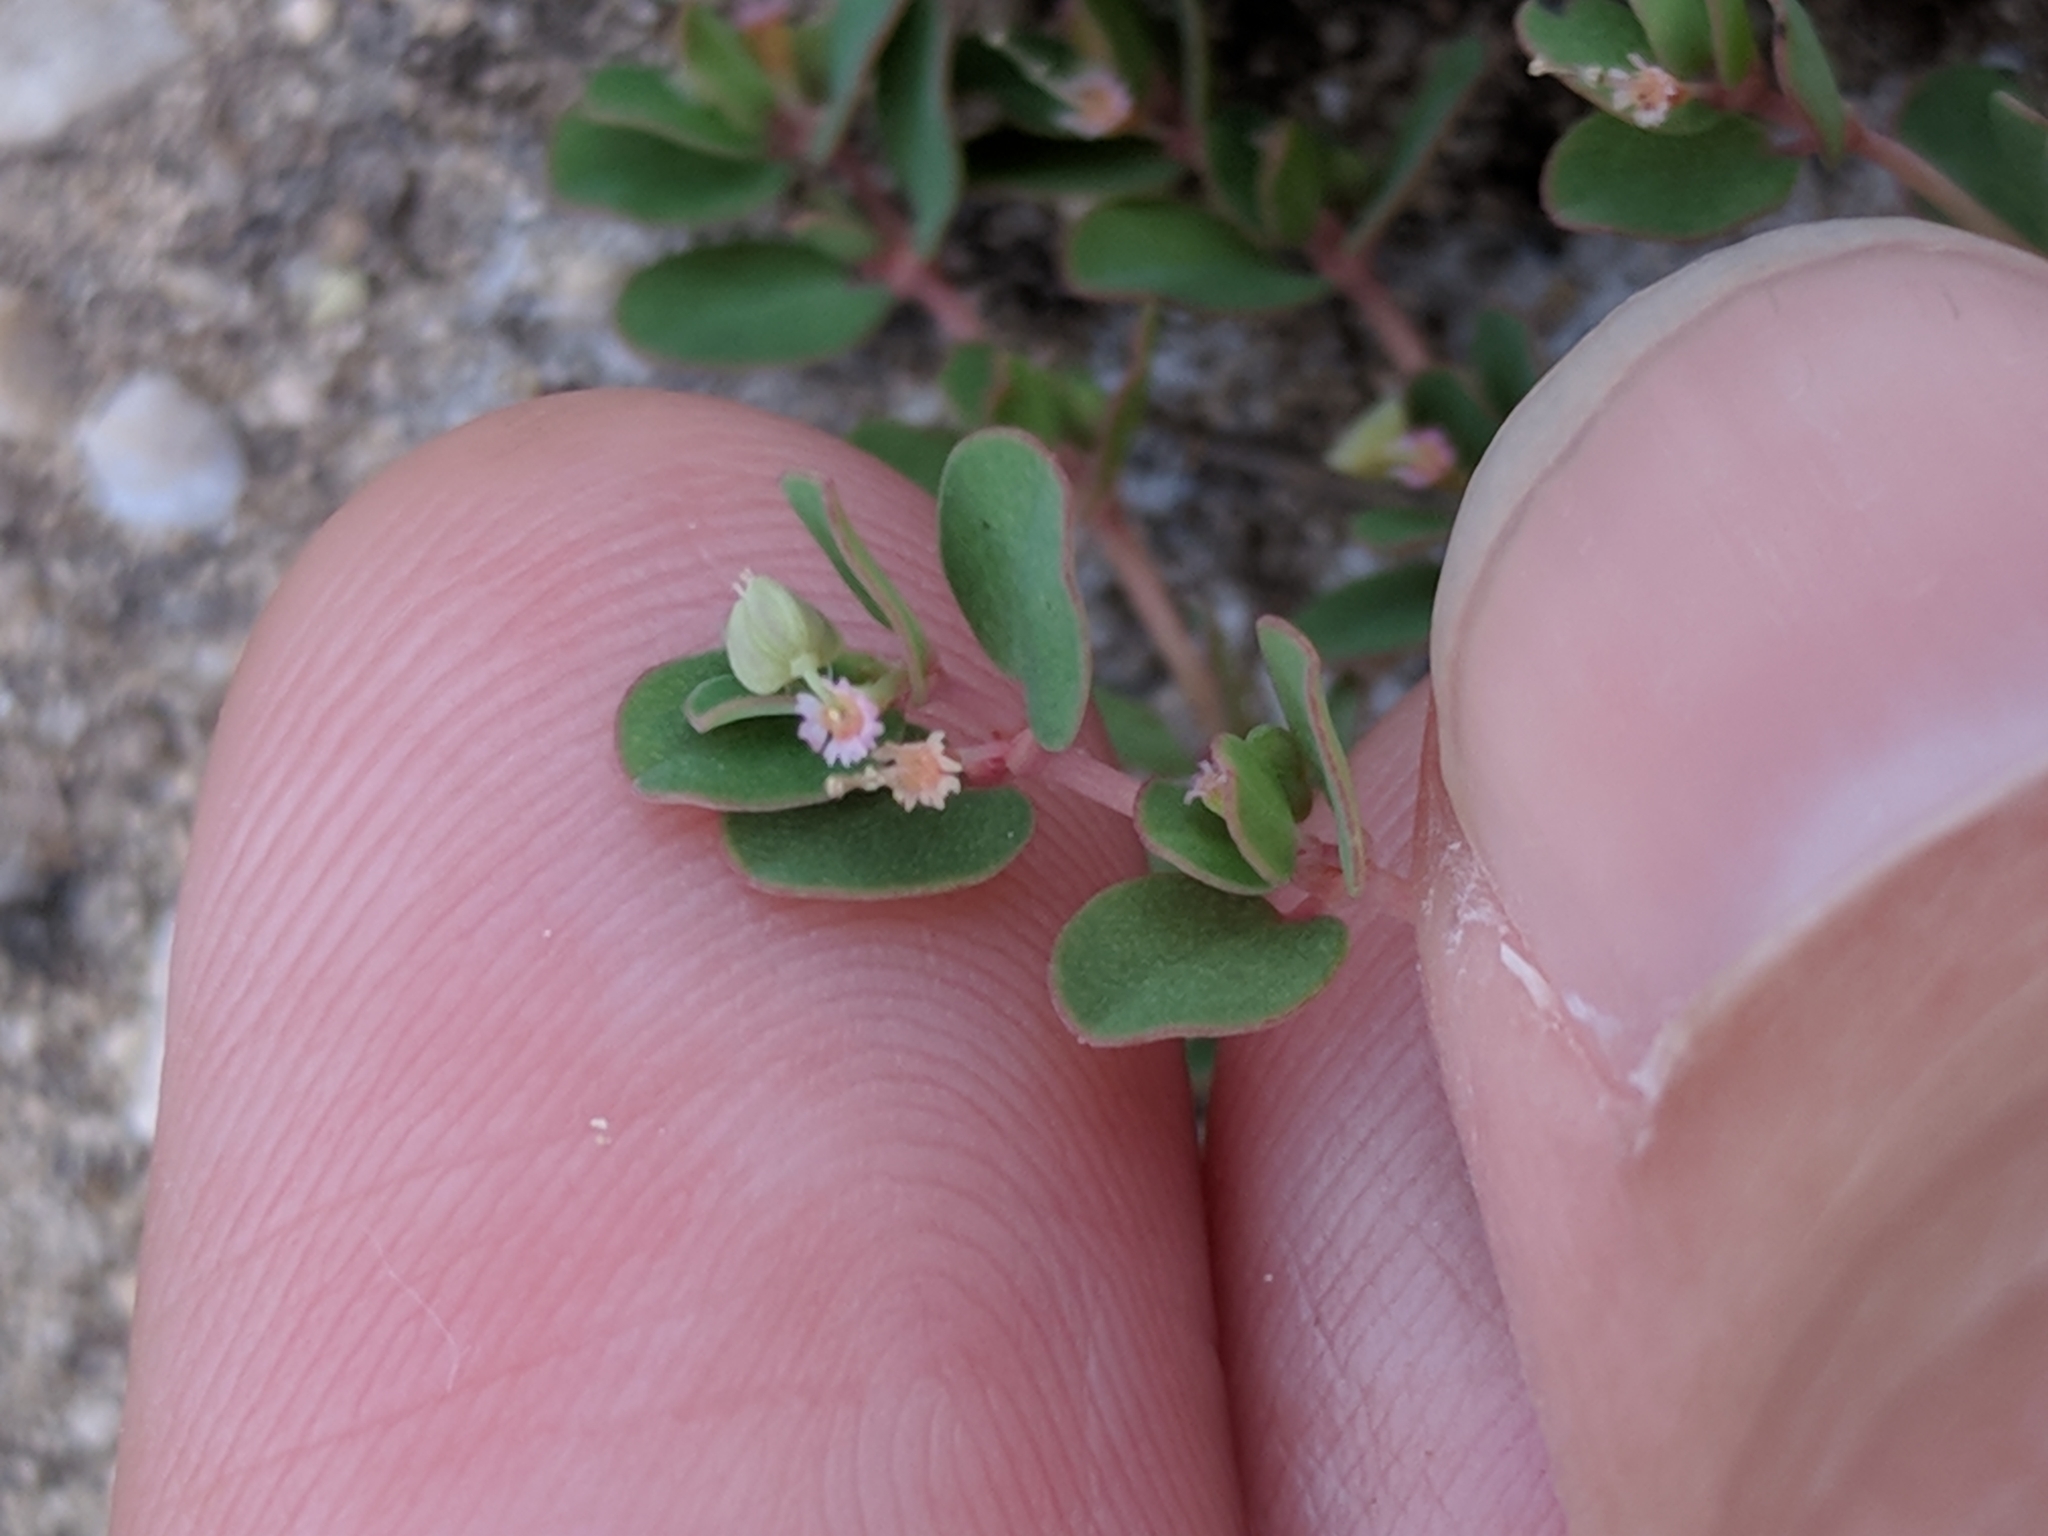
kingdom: Plantae
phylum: Tracheophyta
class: Magnoliopsida
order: Malpighiales
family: Euphorbiaceae
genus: Euphorbia
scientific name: Euphorbia serpens
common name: Matted sandmat
